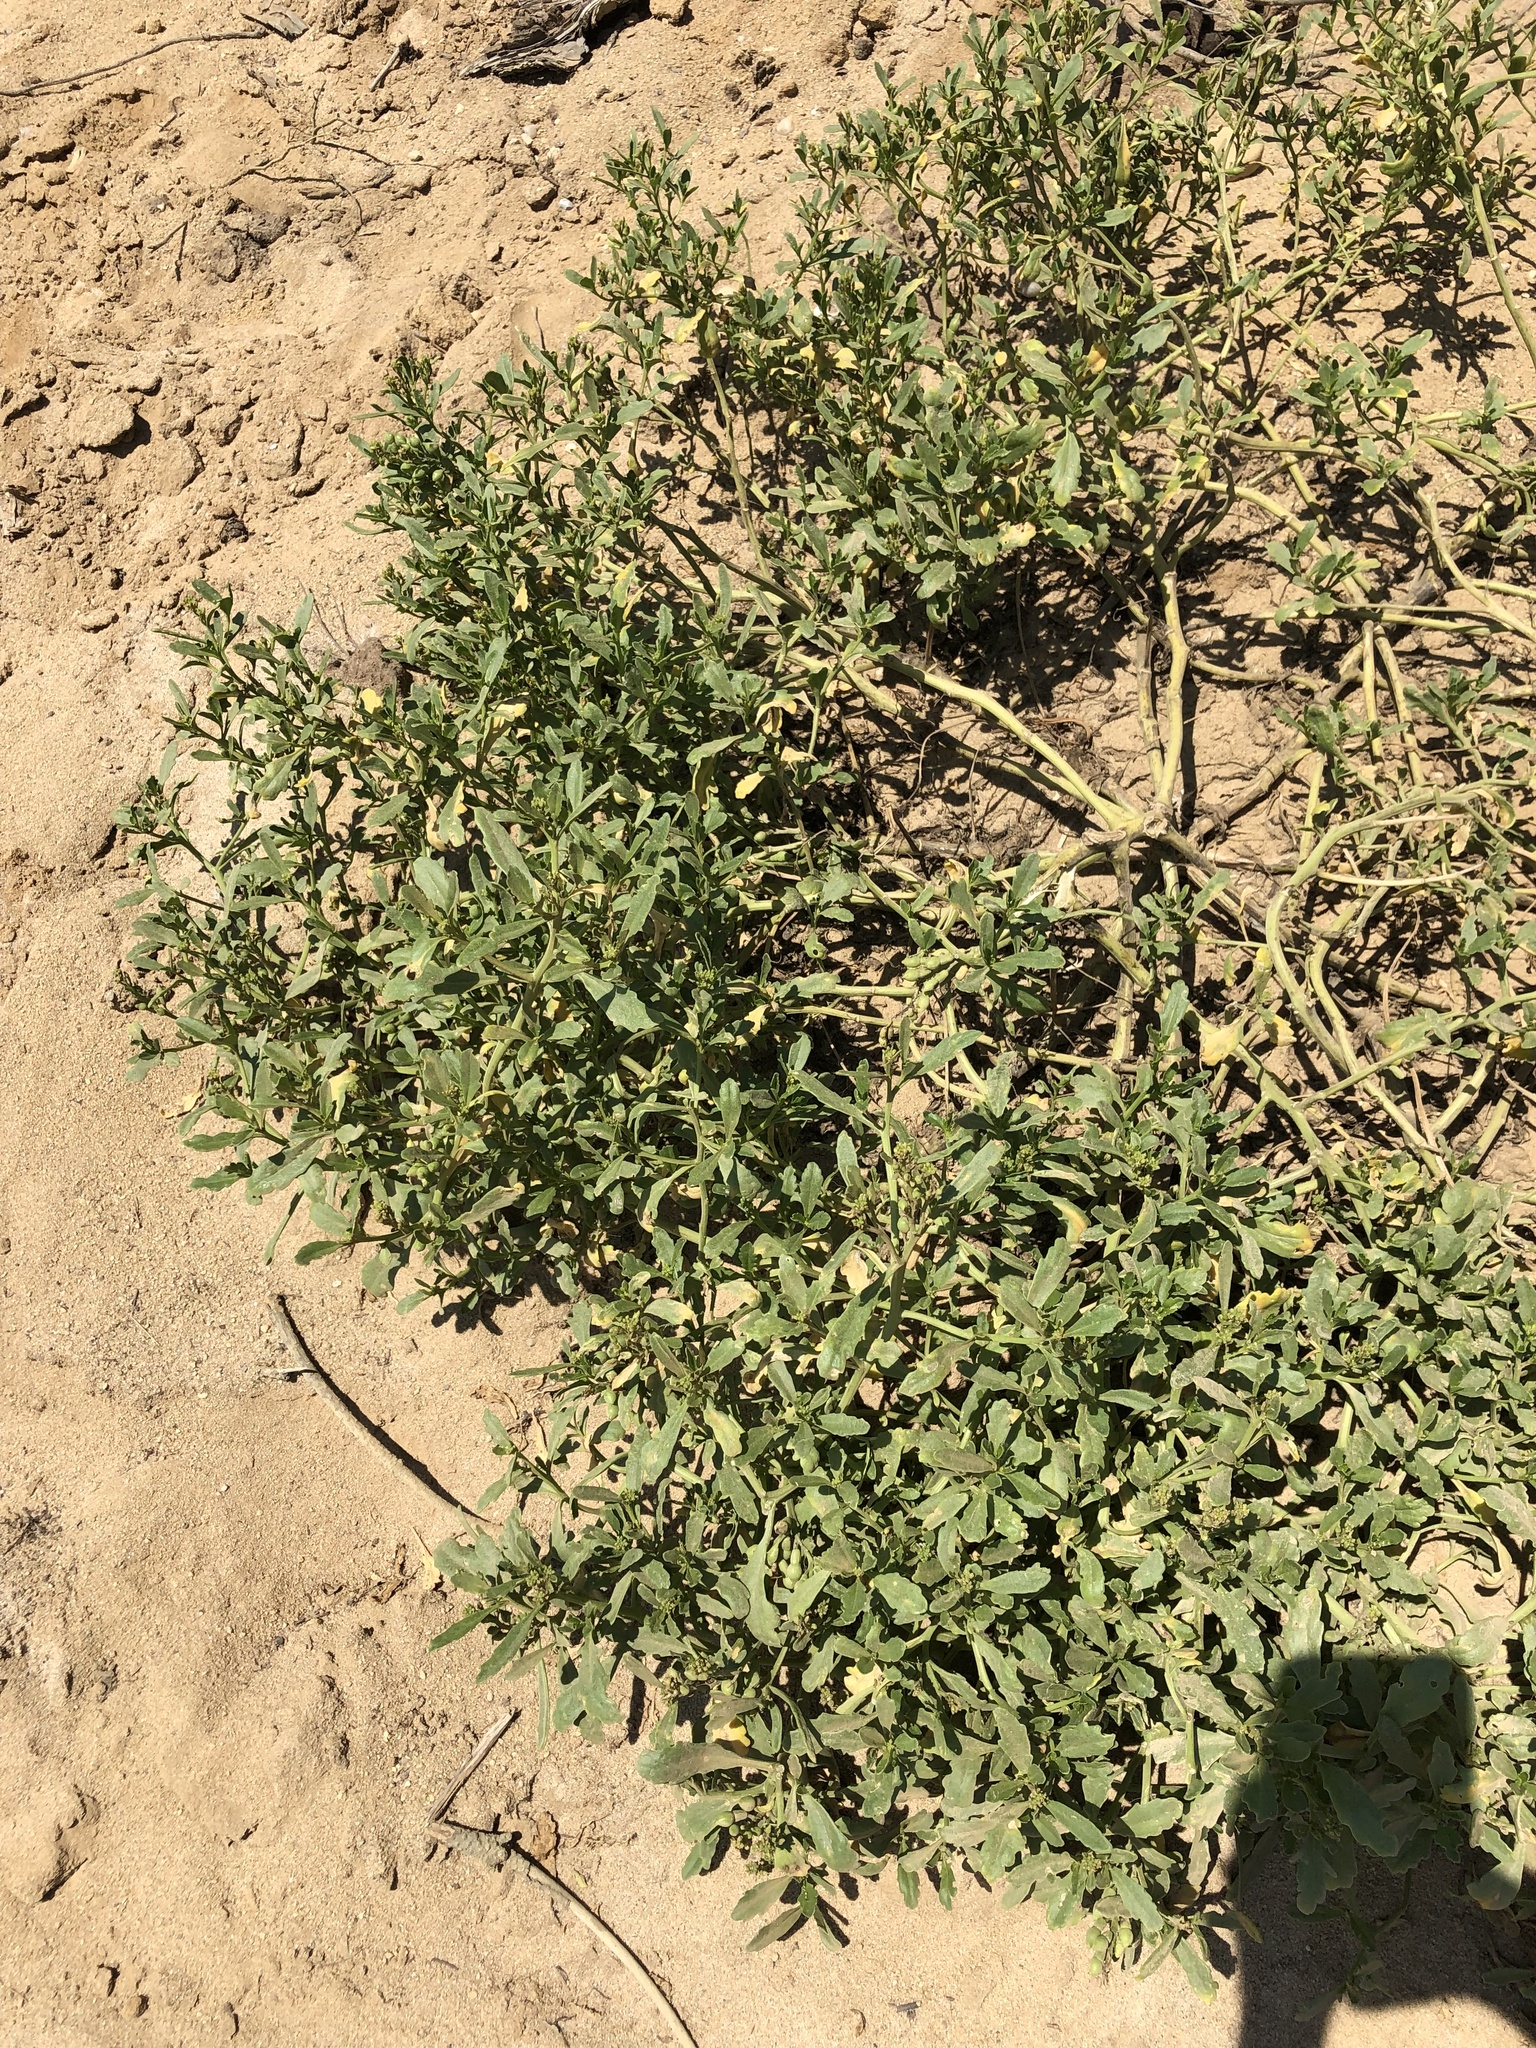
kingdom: Plantae
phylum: Tracheophyta
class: Magnoliopsida
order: Brassicales
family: Brassicaceae
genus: Cakile
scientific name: Cakile edentula
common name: American sea rocket
